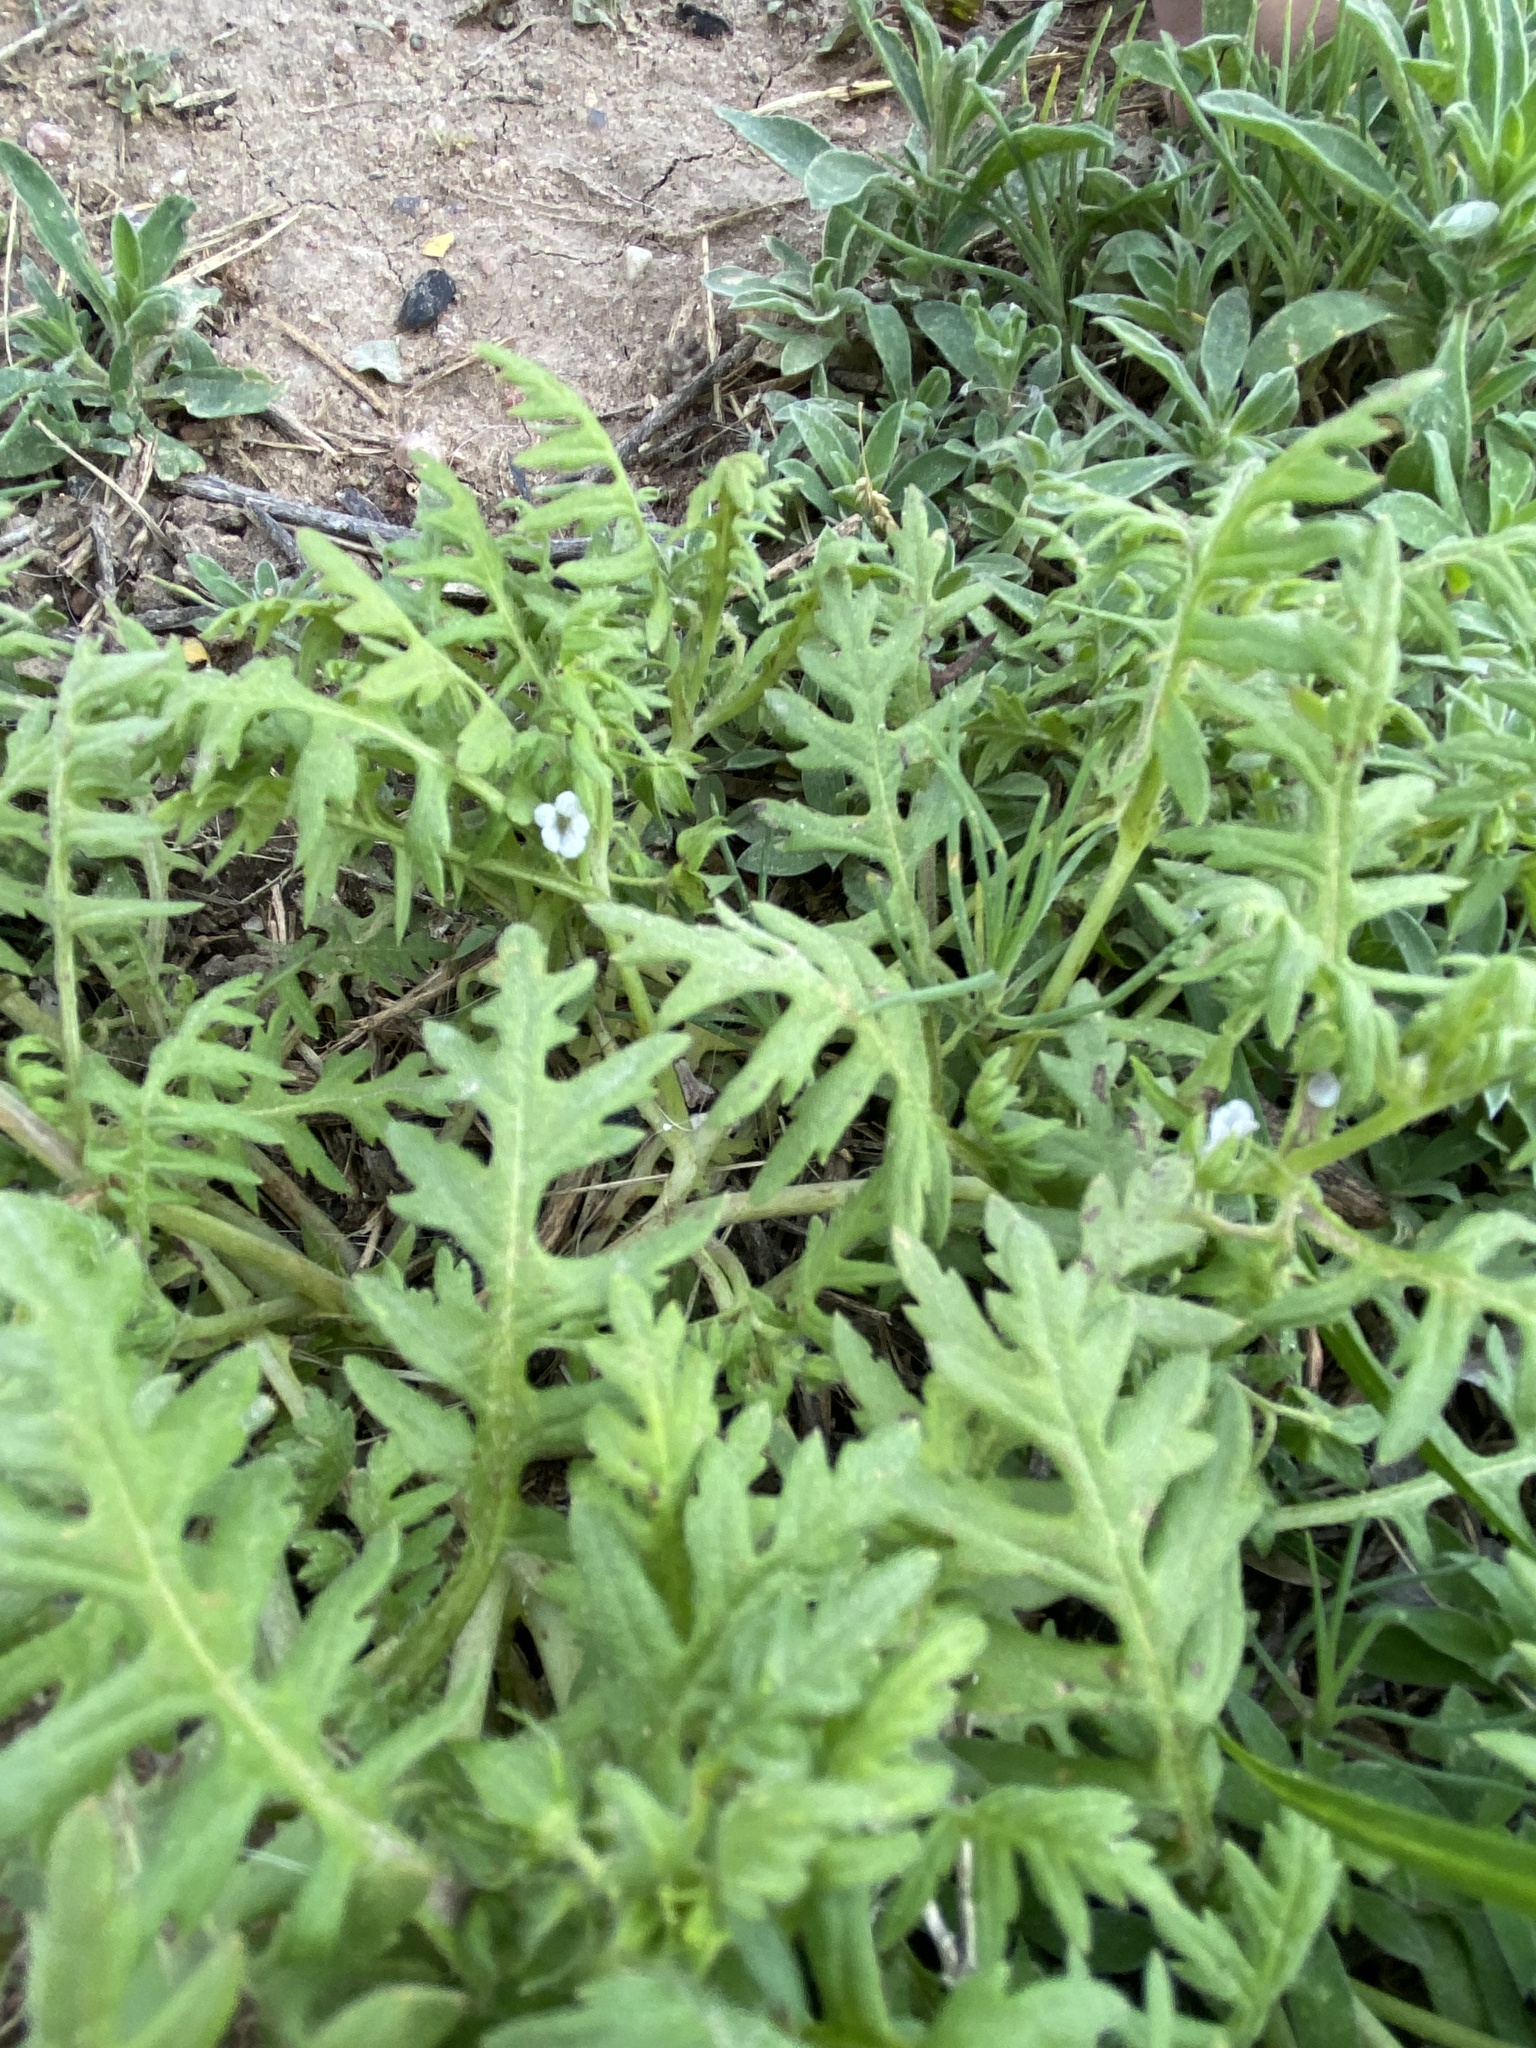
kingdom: Plantae
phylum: Tracheophyta
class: Magnoliopsida
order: Boraginales
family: Hydrophyllaceae
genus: Ellisia
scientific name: Ellisia nyctelea
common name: Aunt lucy
